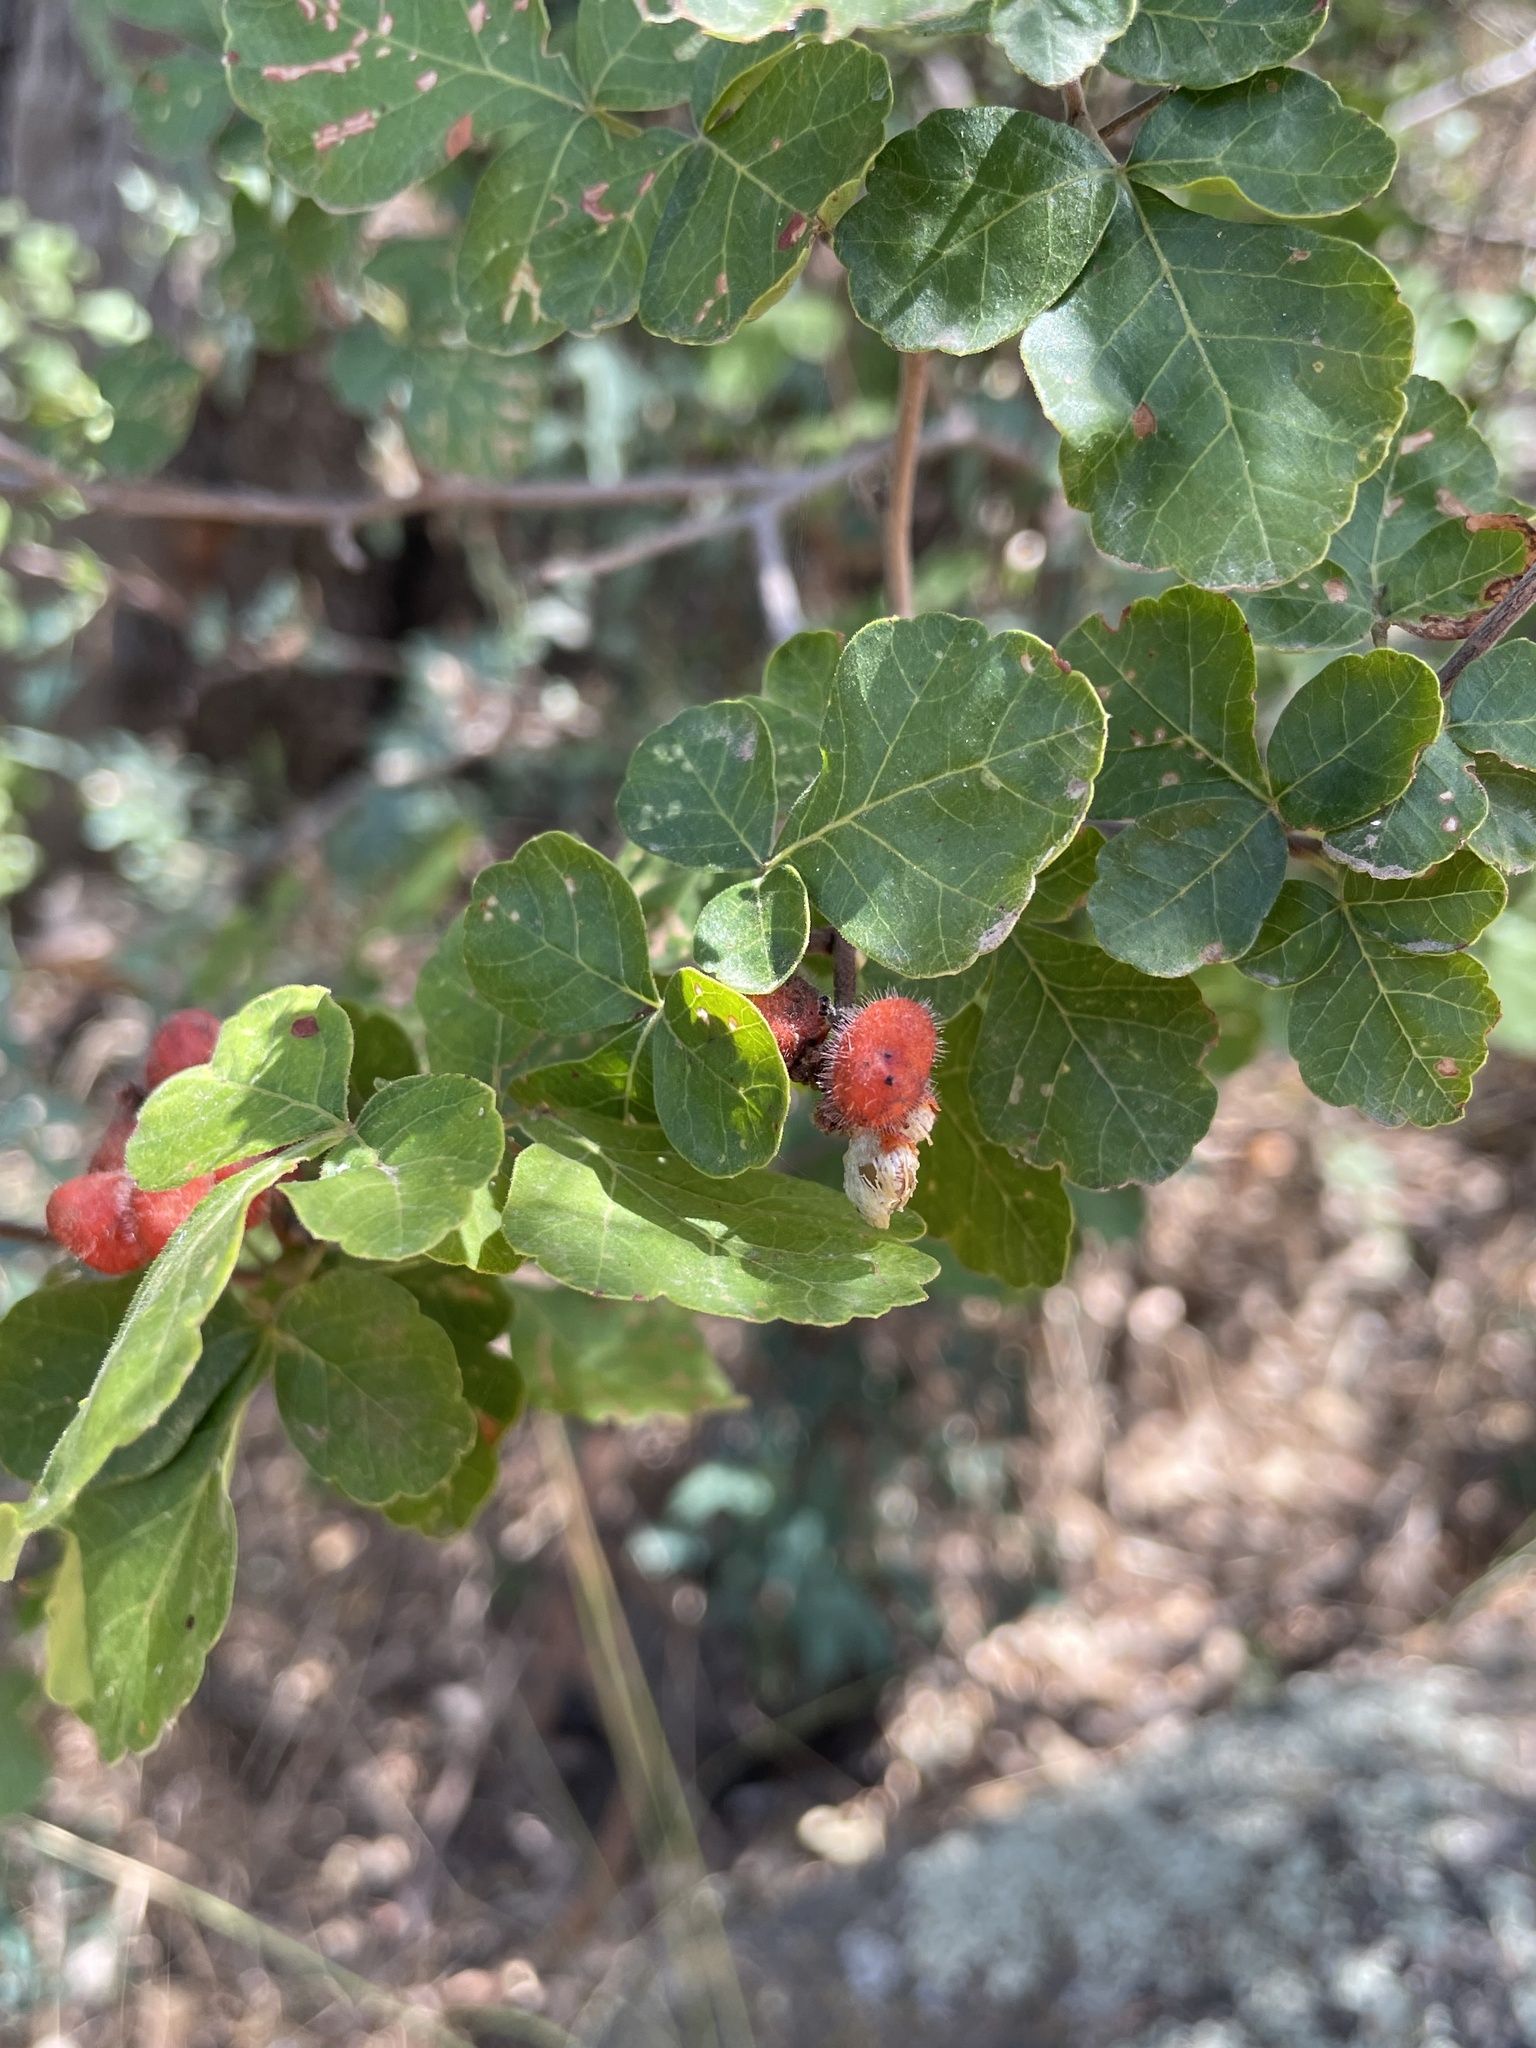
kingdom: Plantae
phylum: Tracheophyta
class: Magnoliopsida
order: Sapindales
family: Anacardiaceae
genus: Rhus
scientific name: Rhus aromatica
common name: Aromatic sumac
